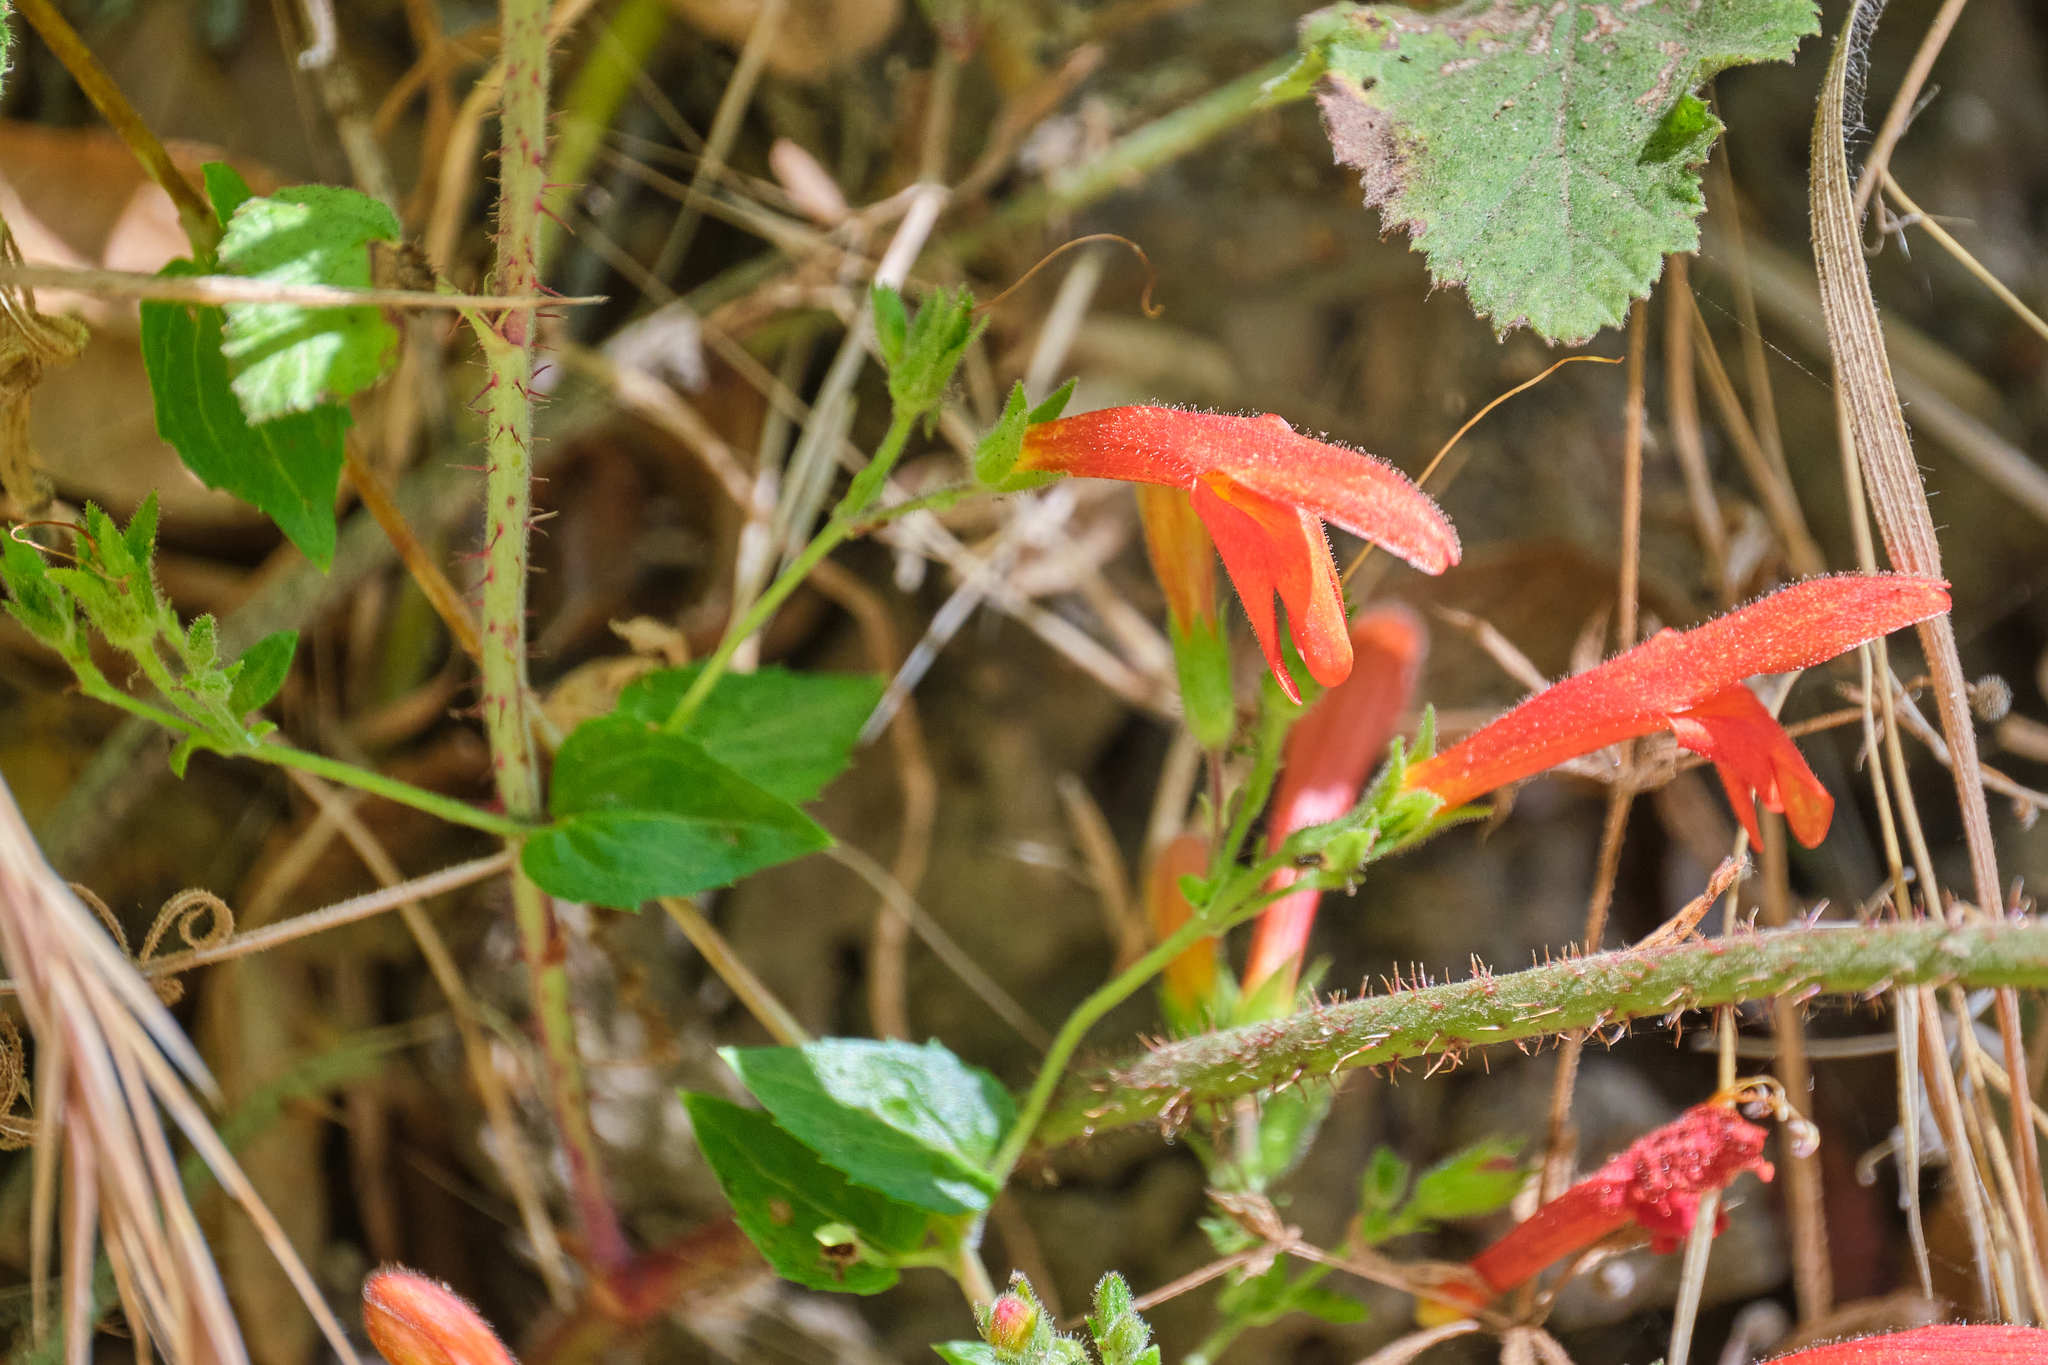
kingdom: Plantae
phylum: Tracheophyta
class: Magnoliopsida
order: Lamiales
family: Plantaginaceae
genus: Keckiella
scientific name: Keckiella cordifolia
